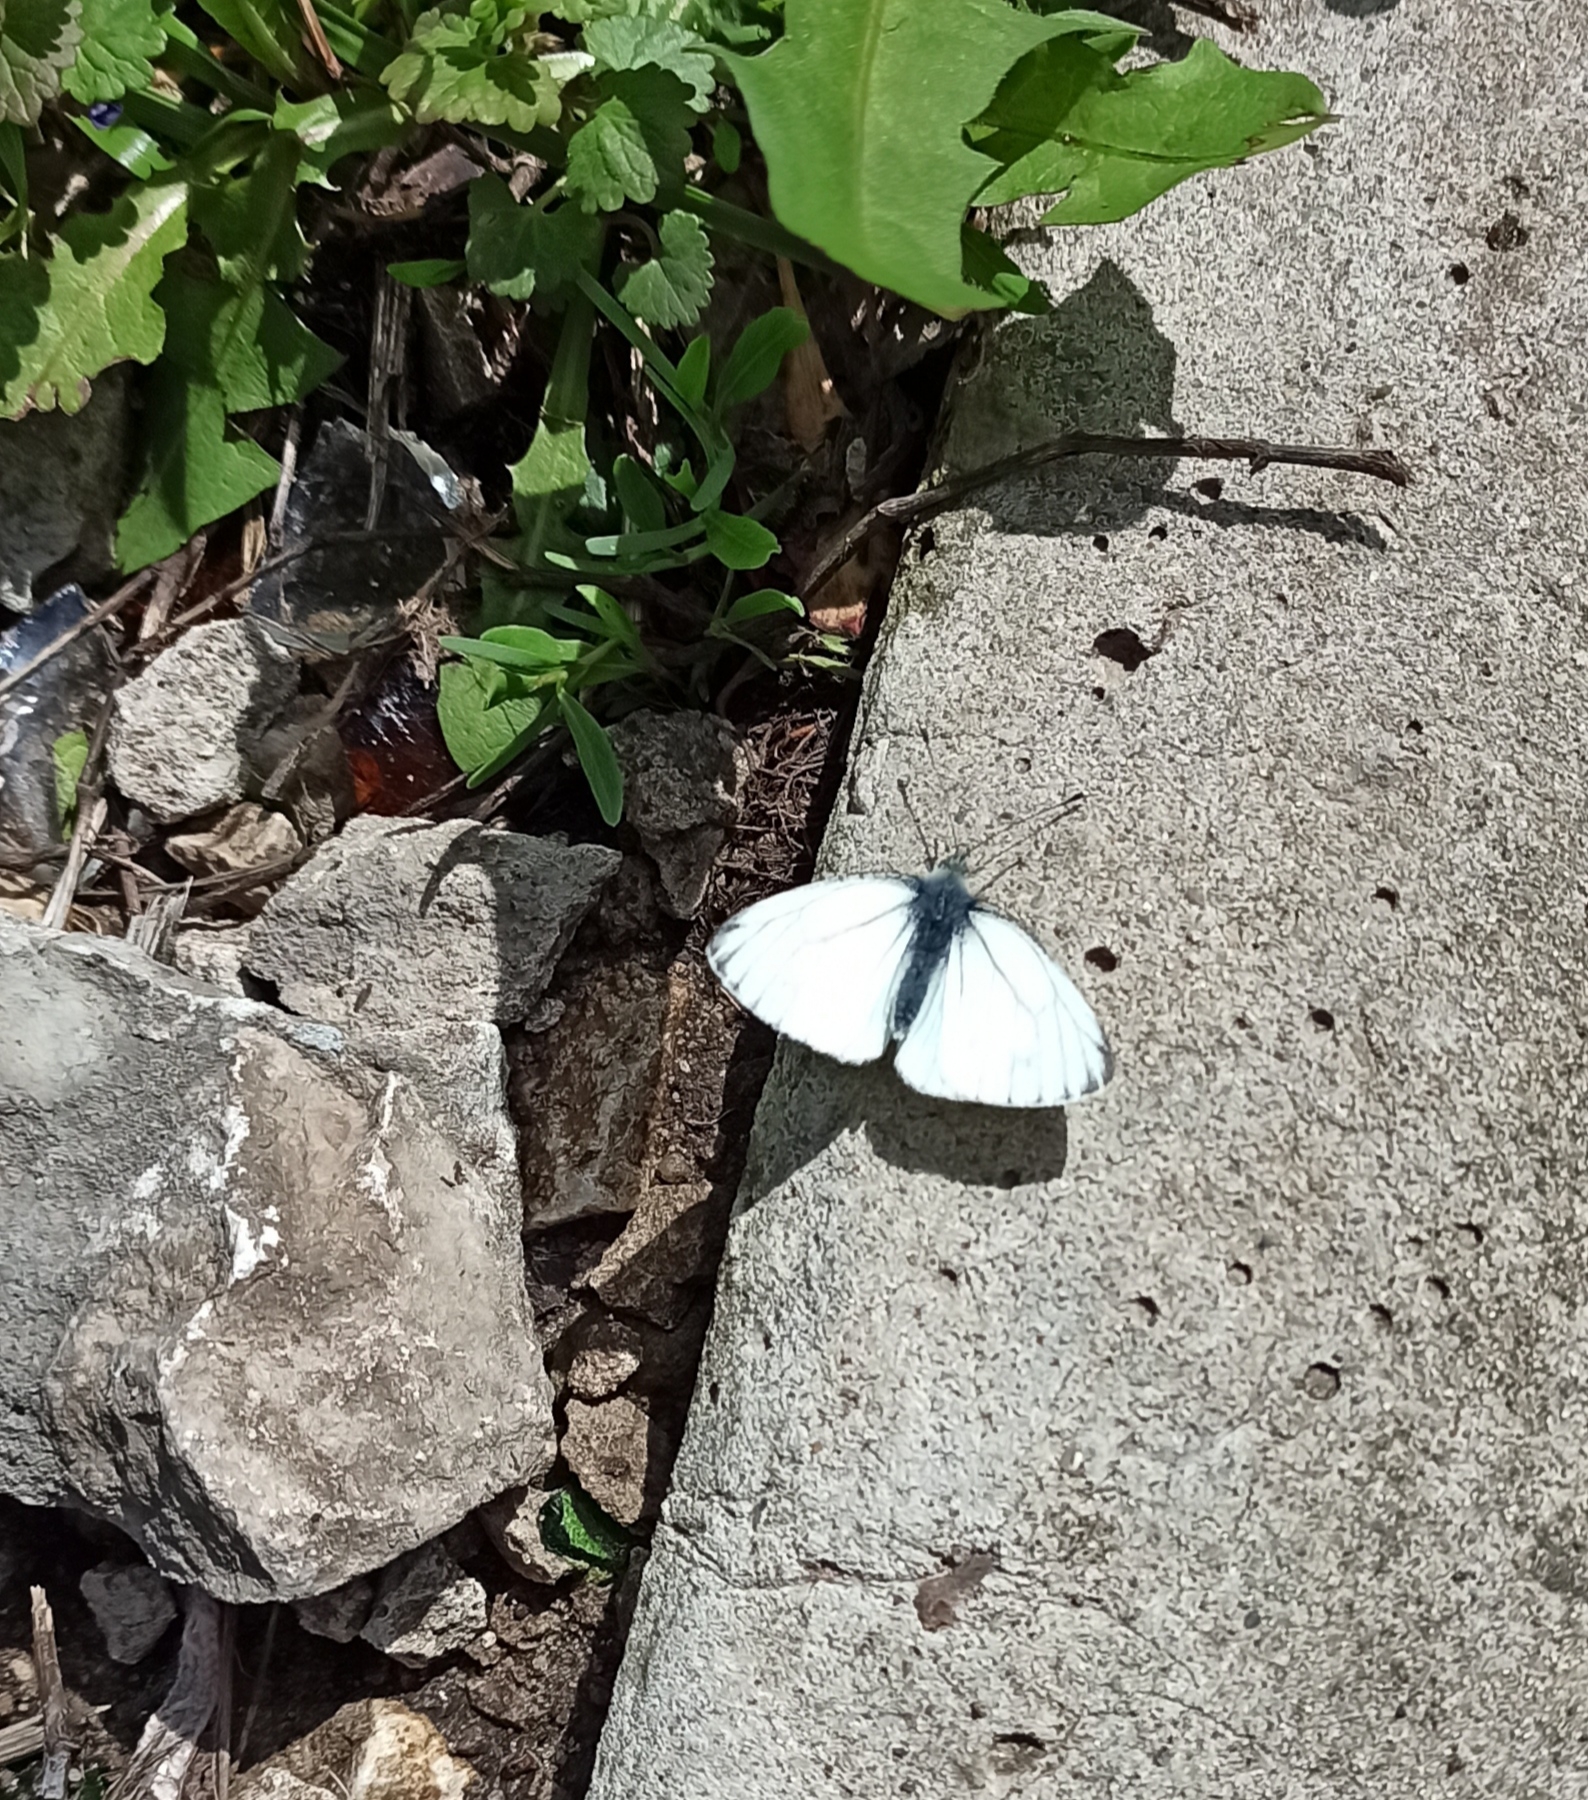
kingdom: Animalia
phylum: Arthropoda
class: Insecta
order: Lepidoptera
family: Pieridae
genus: Pieris
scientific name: Pieris napi
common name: Green-veined white
